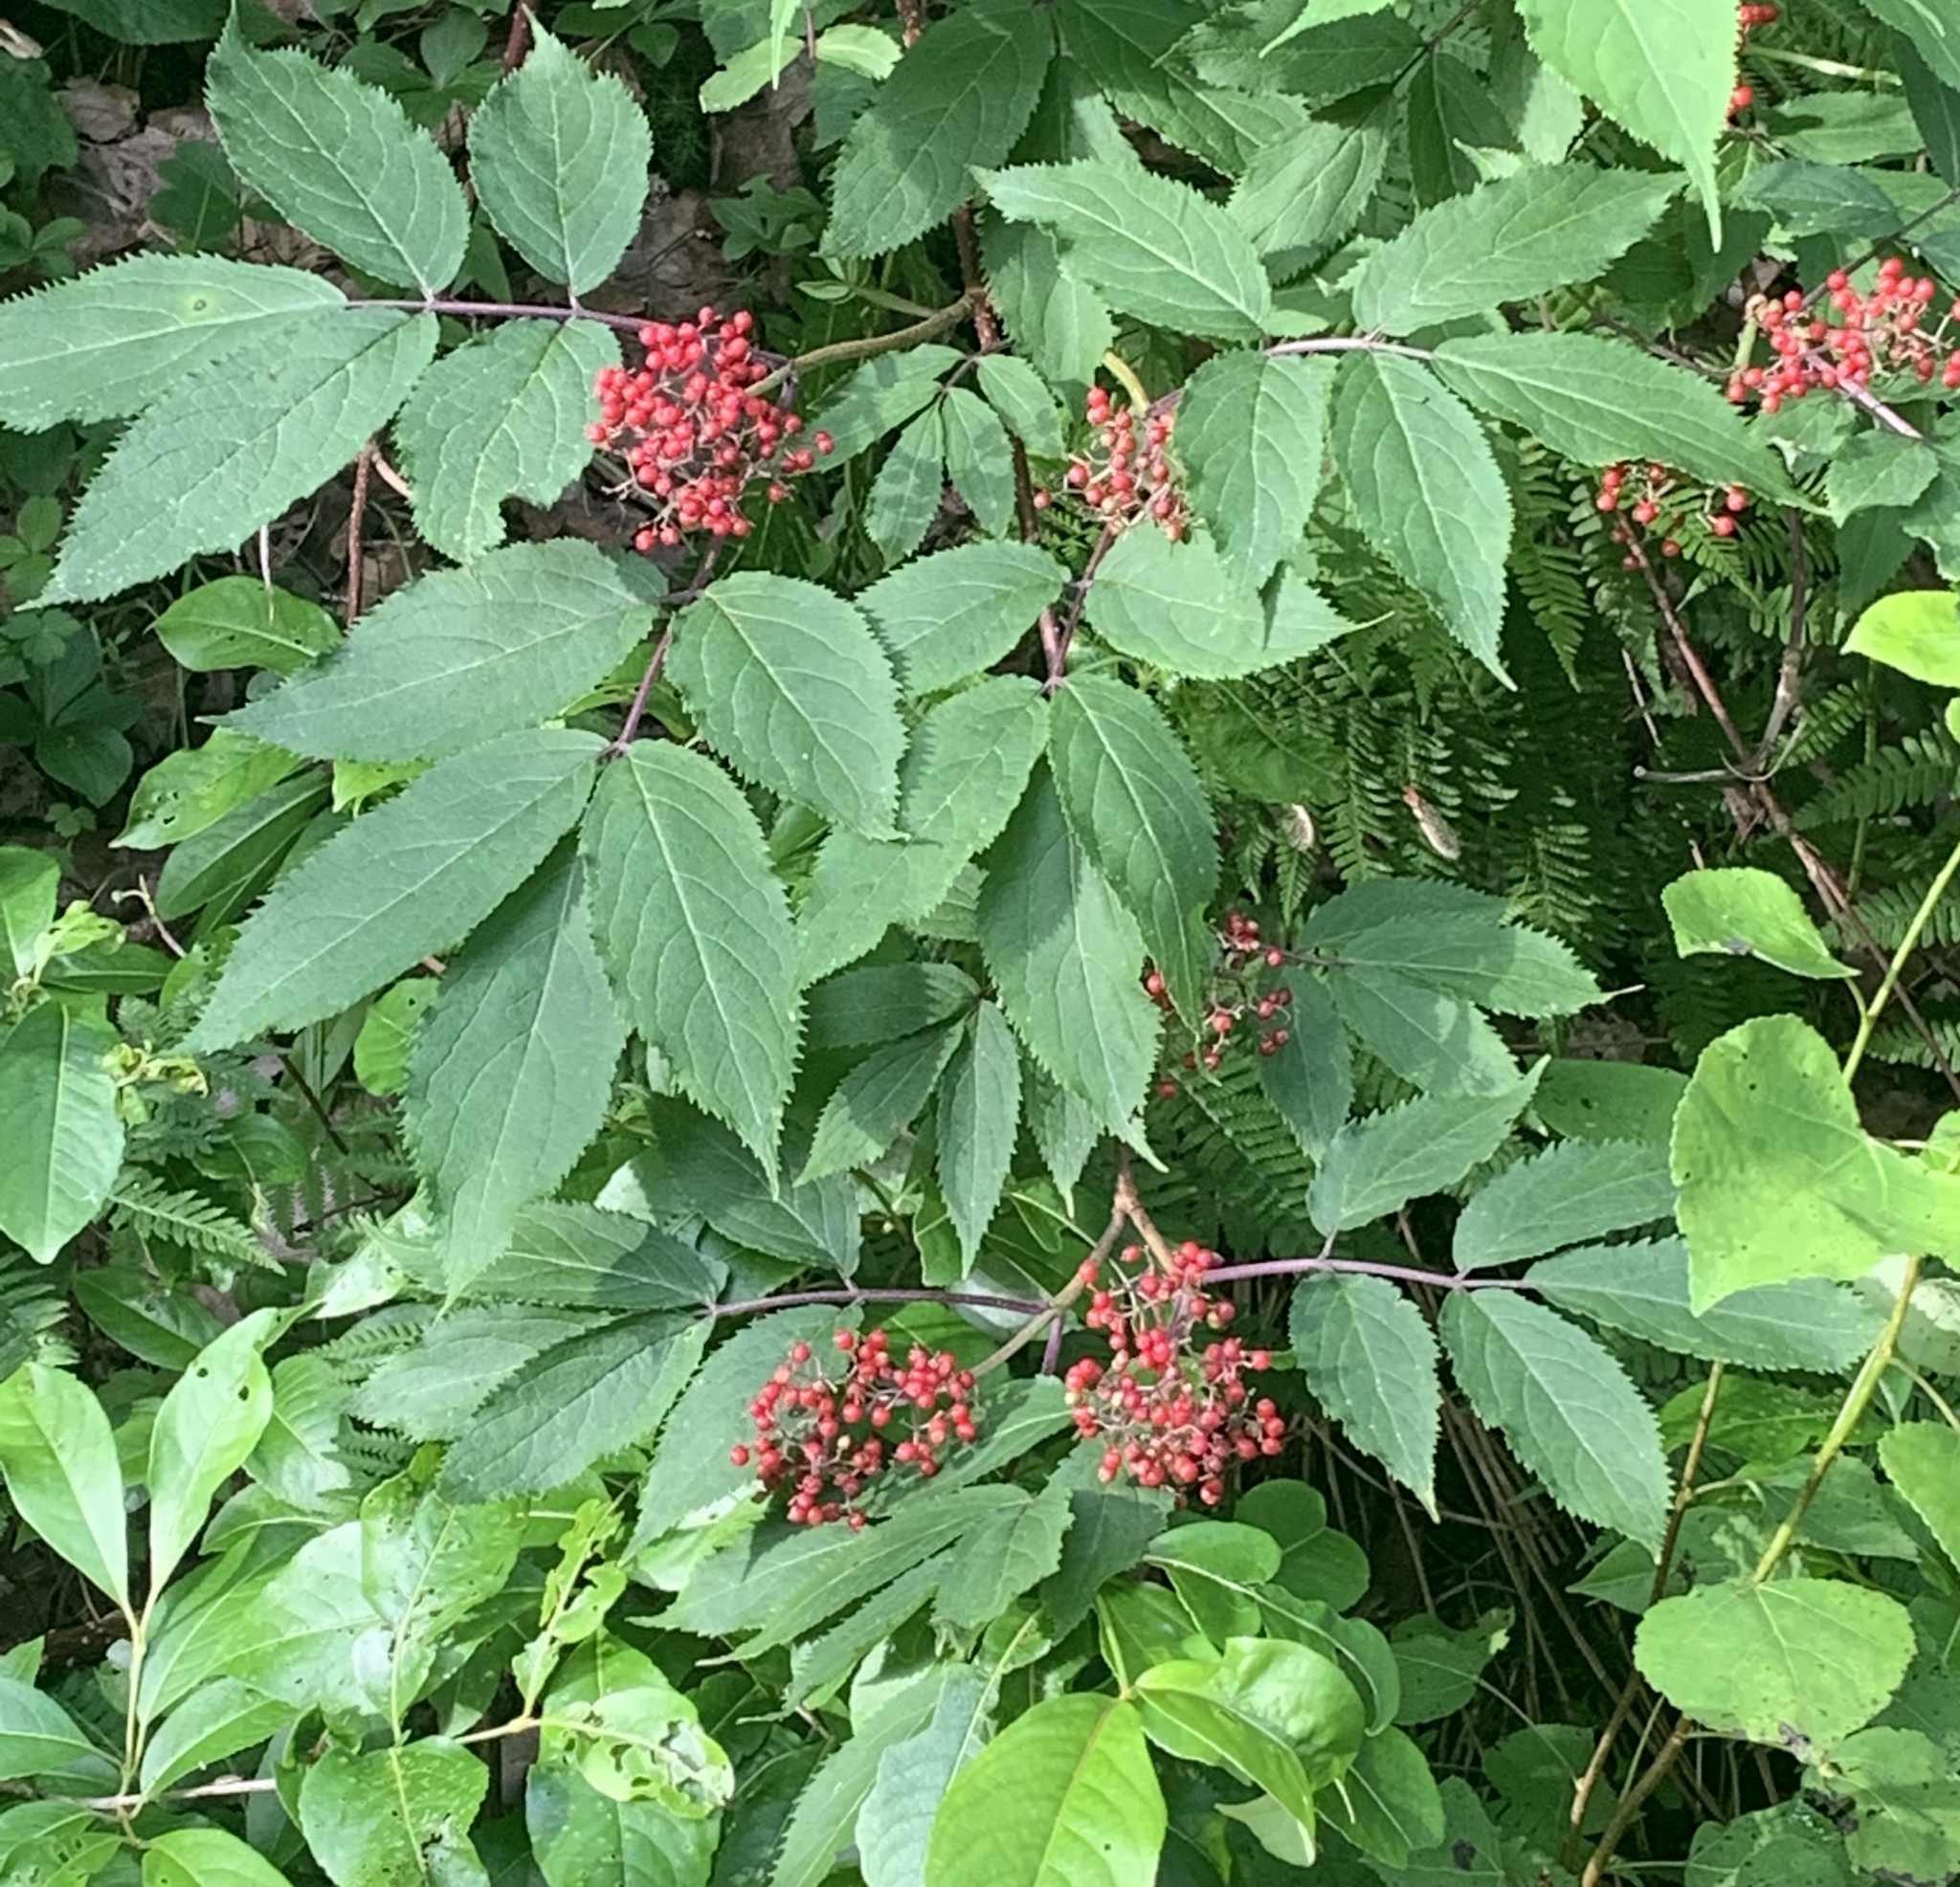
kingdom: Plantae
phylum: Tracheophyta
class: Magnoliopsida
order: Dipsacales
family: Viburnaceae
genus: Sambucus
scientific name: Sambucus racemosa
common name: Red-berried elder
